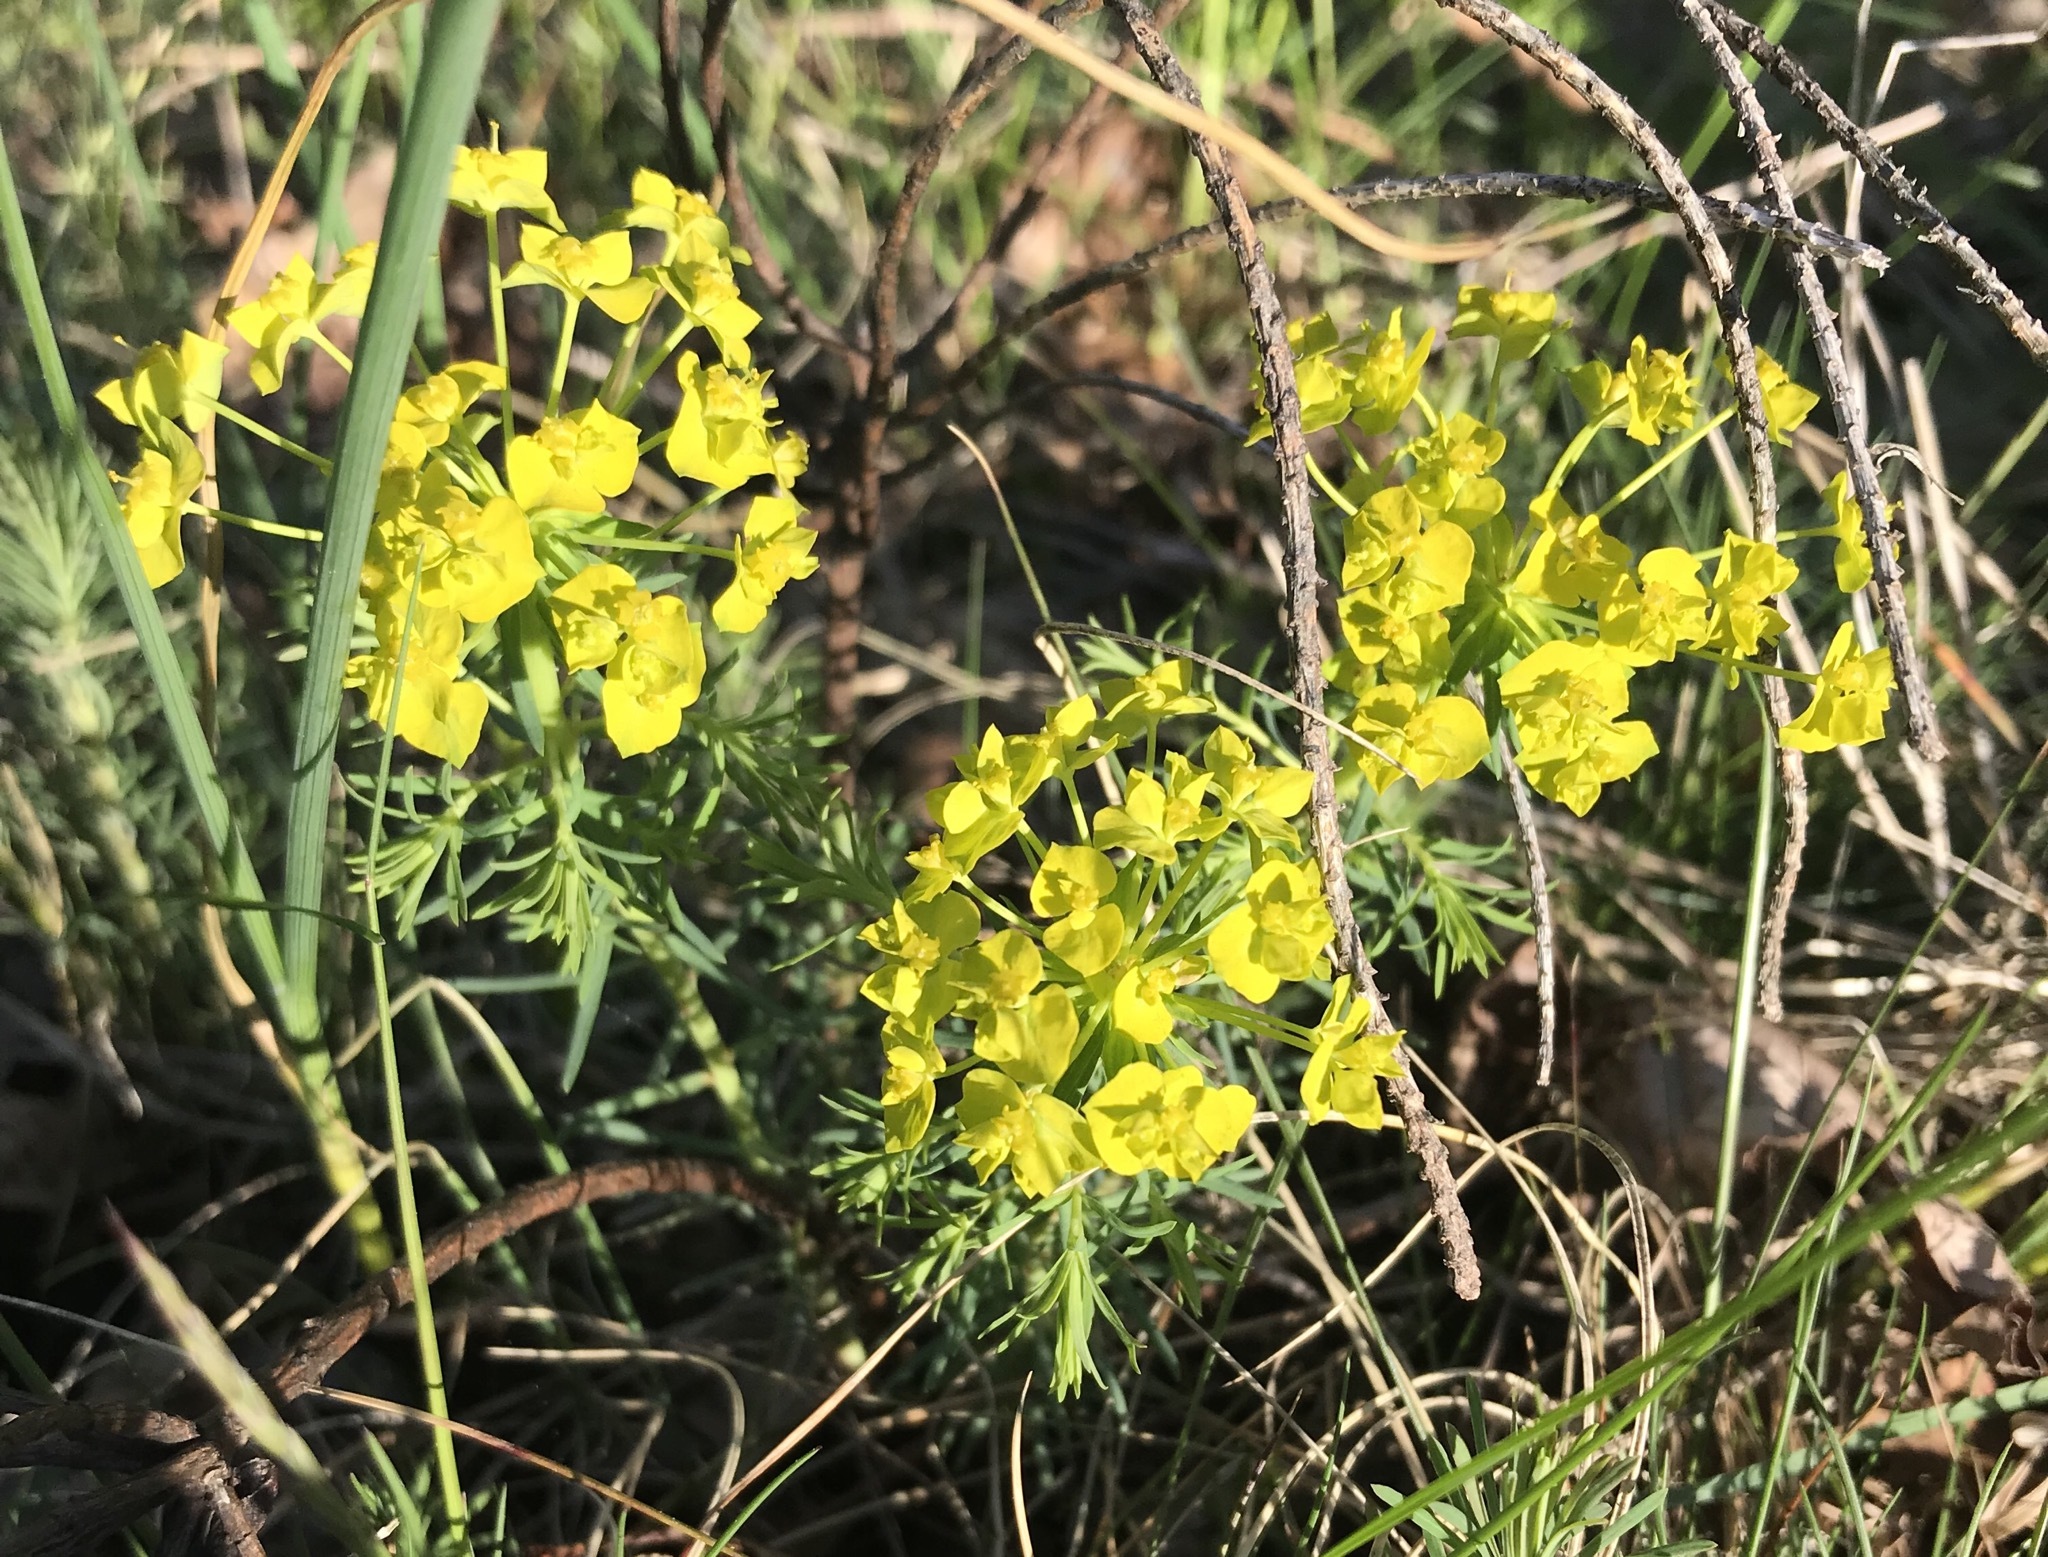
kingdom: Plantae
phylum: Tracheophyta
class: Magnoliopsida
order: Malpighiales
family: Euphorbiaceae
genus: Euphorbia
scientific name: Euphorbia cyparissias
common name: Cypress spurge
